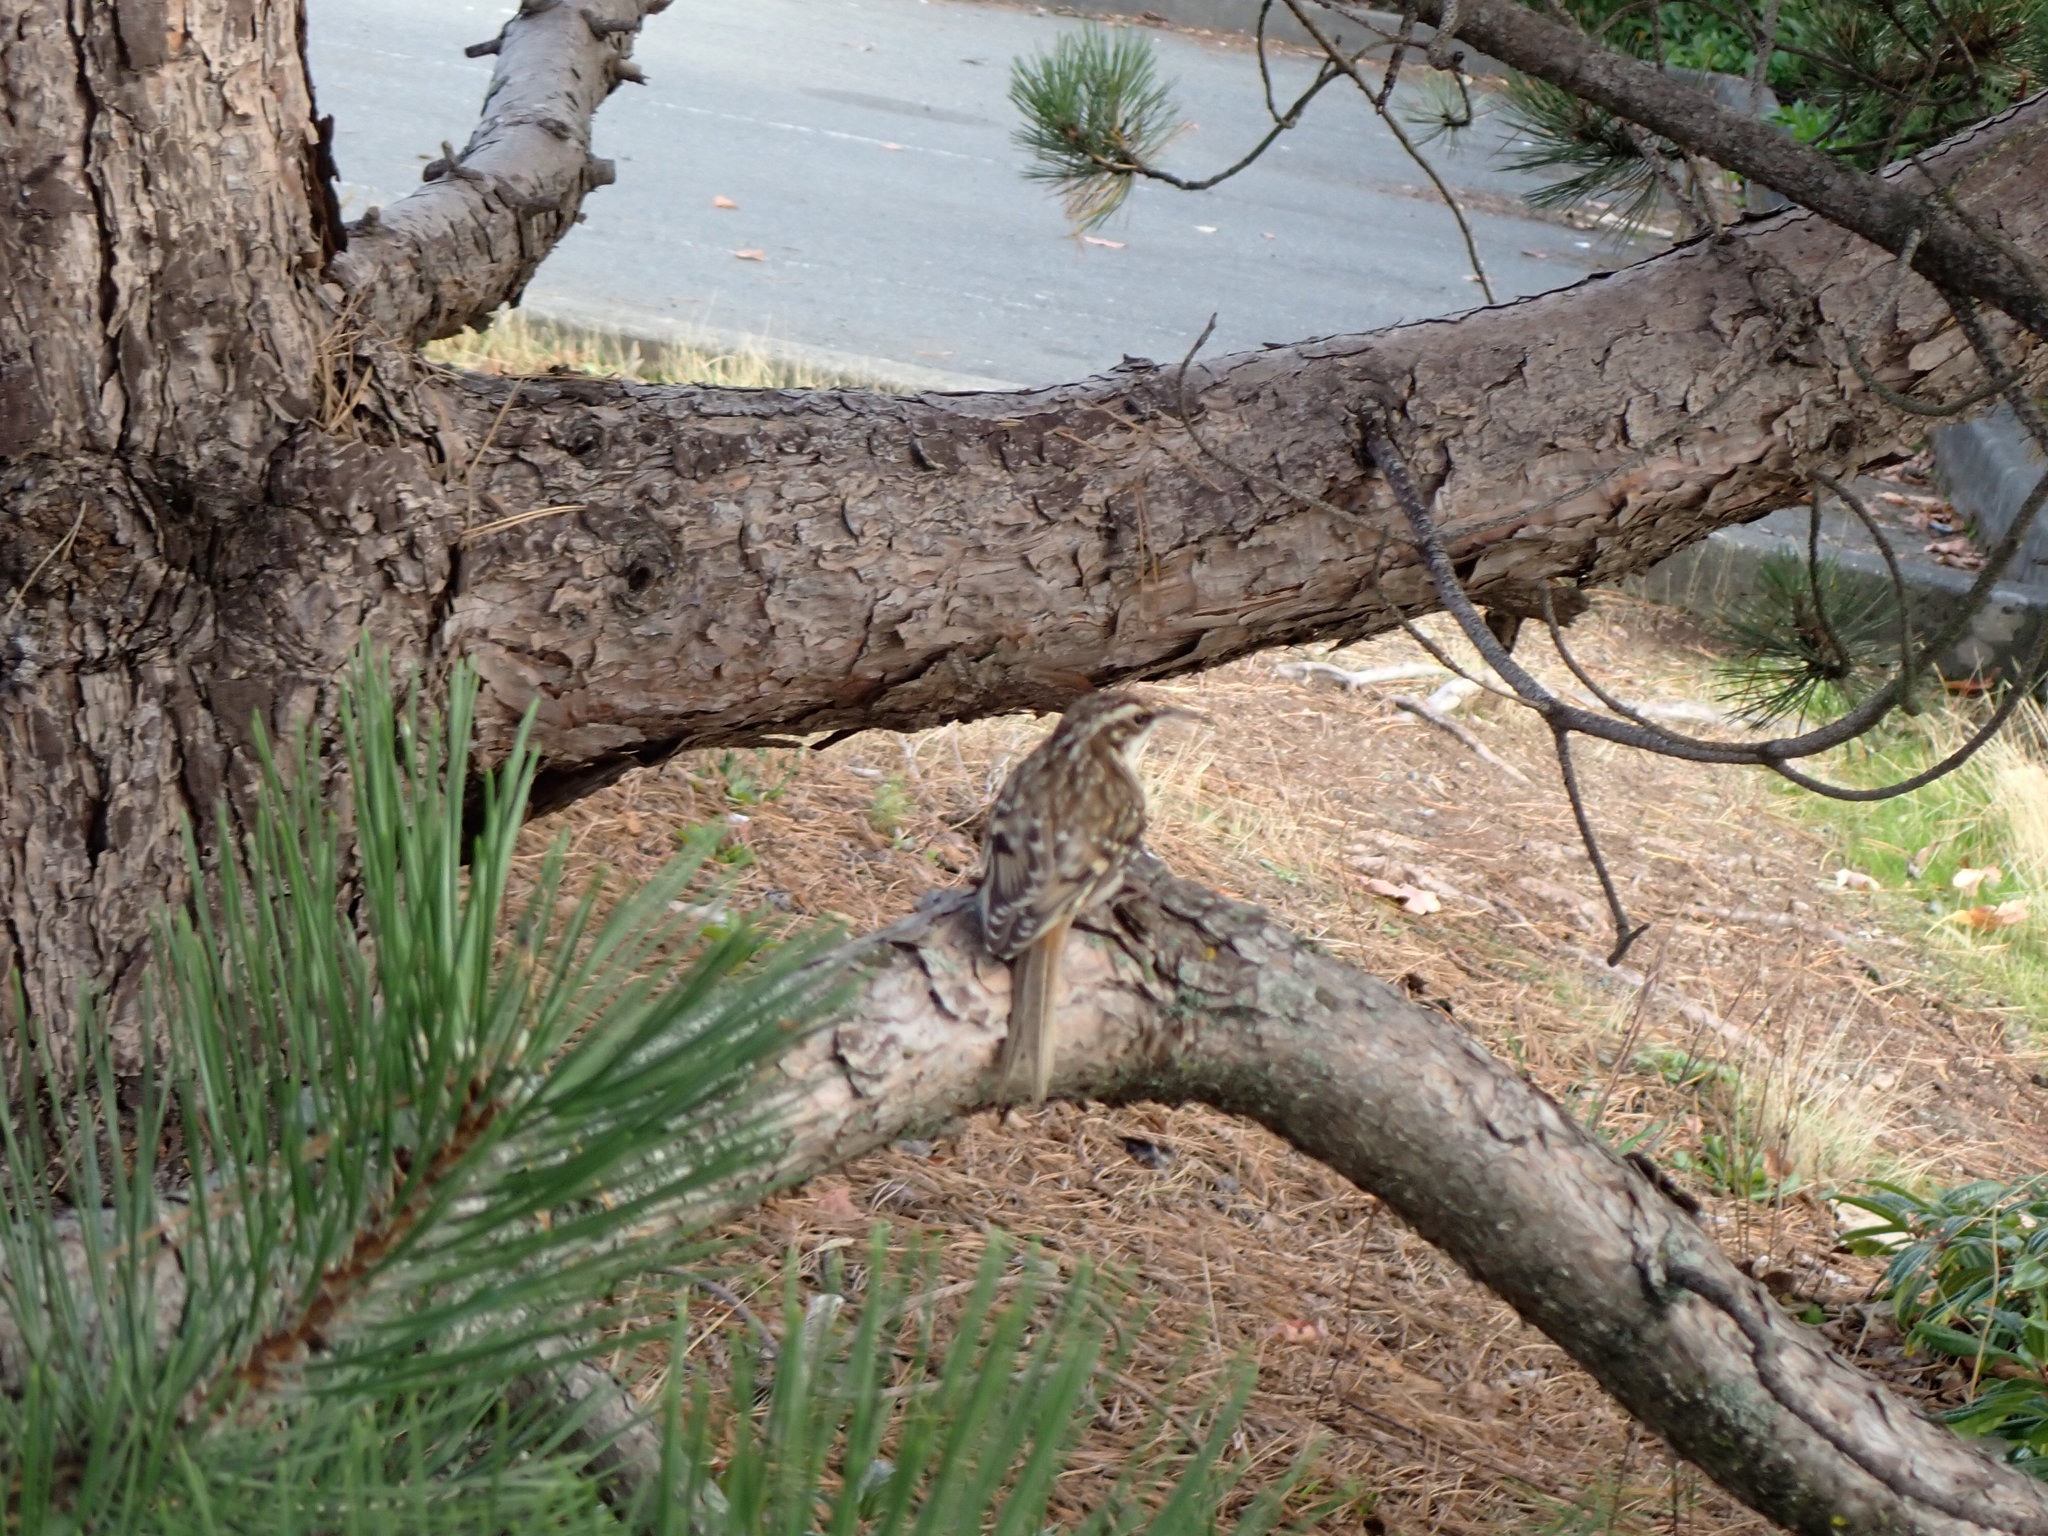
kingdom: Animalia
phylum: Chordata
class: Aves
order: Passeriformes
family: Certhiidae
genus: Certhia
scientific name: Certhia americana
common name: Brown creeper
